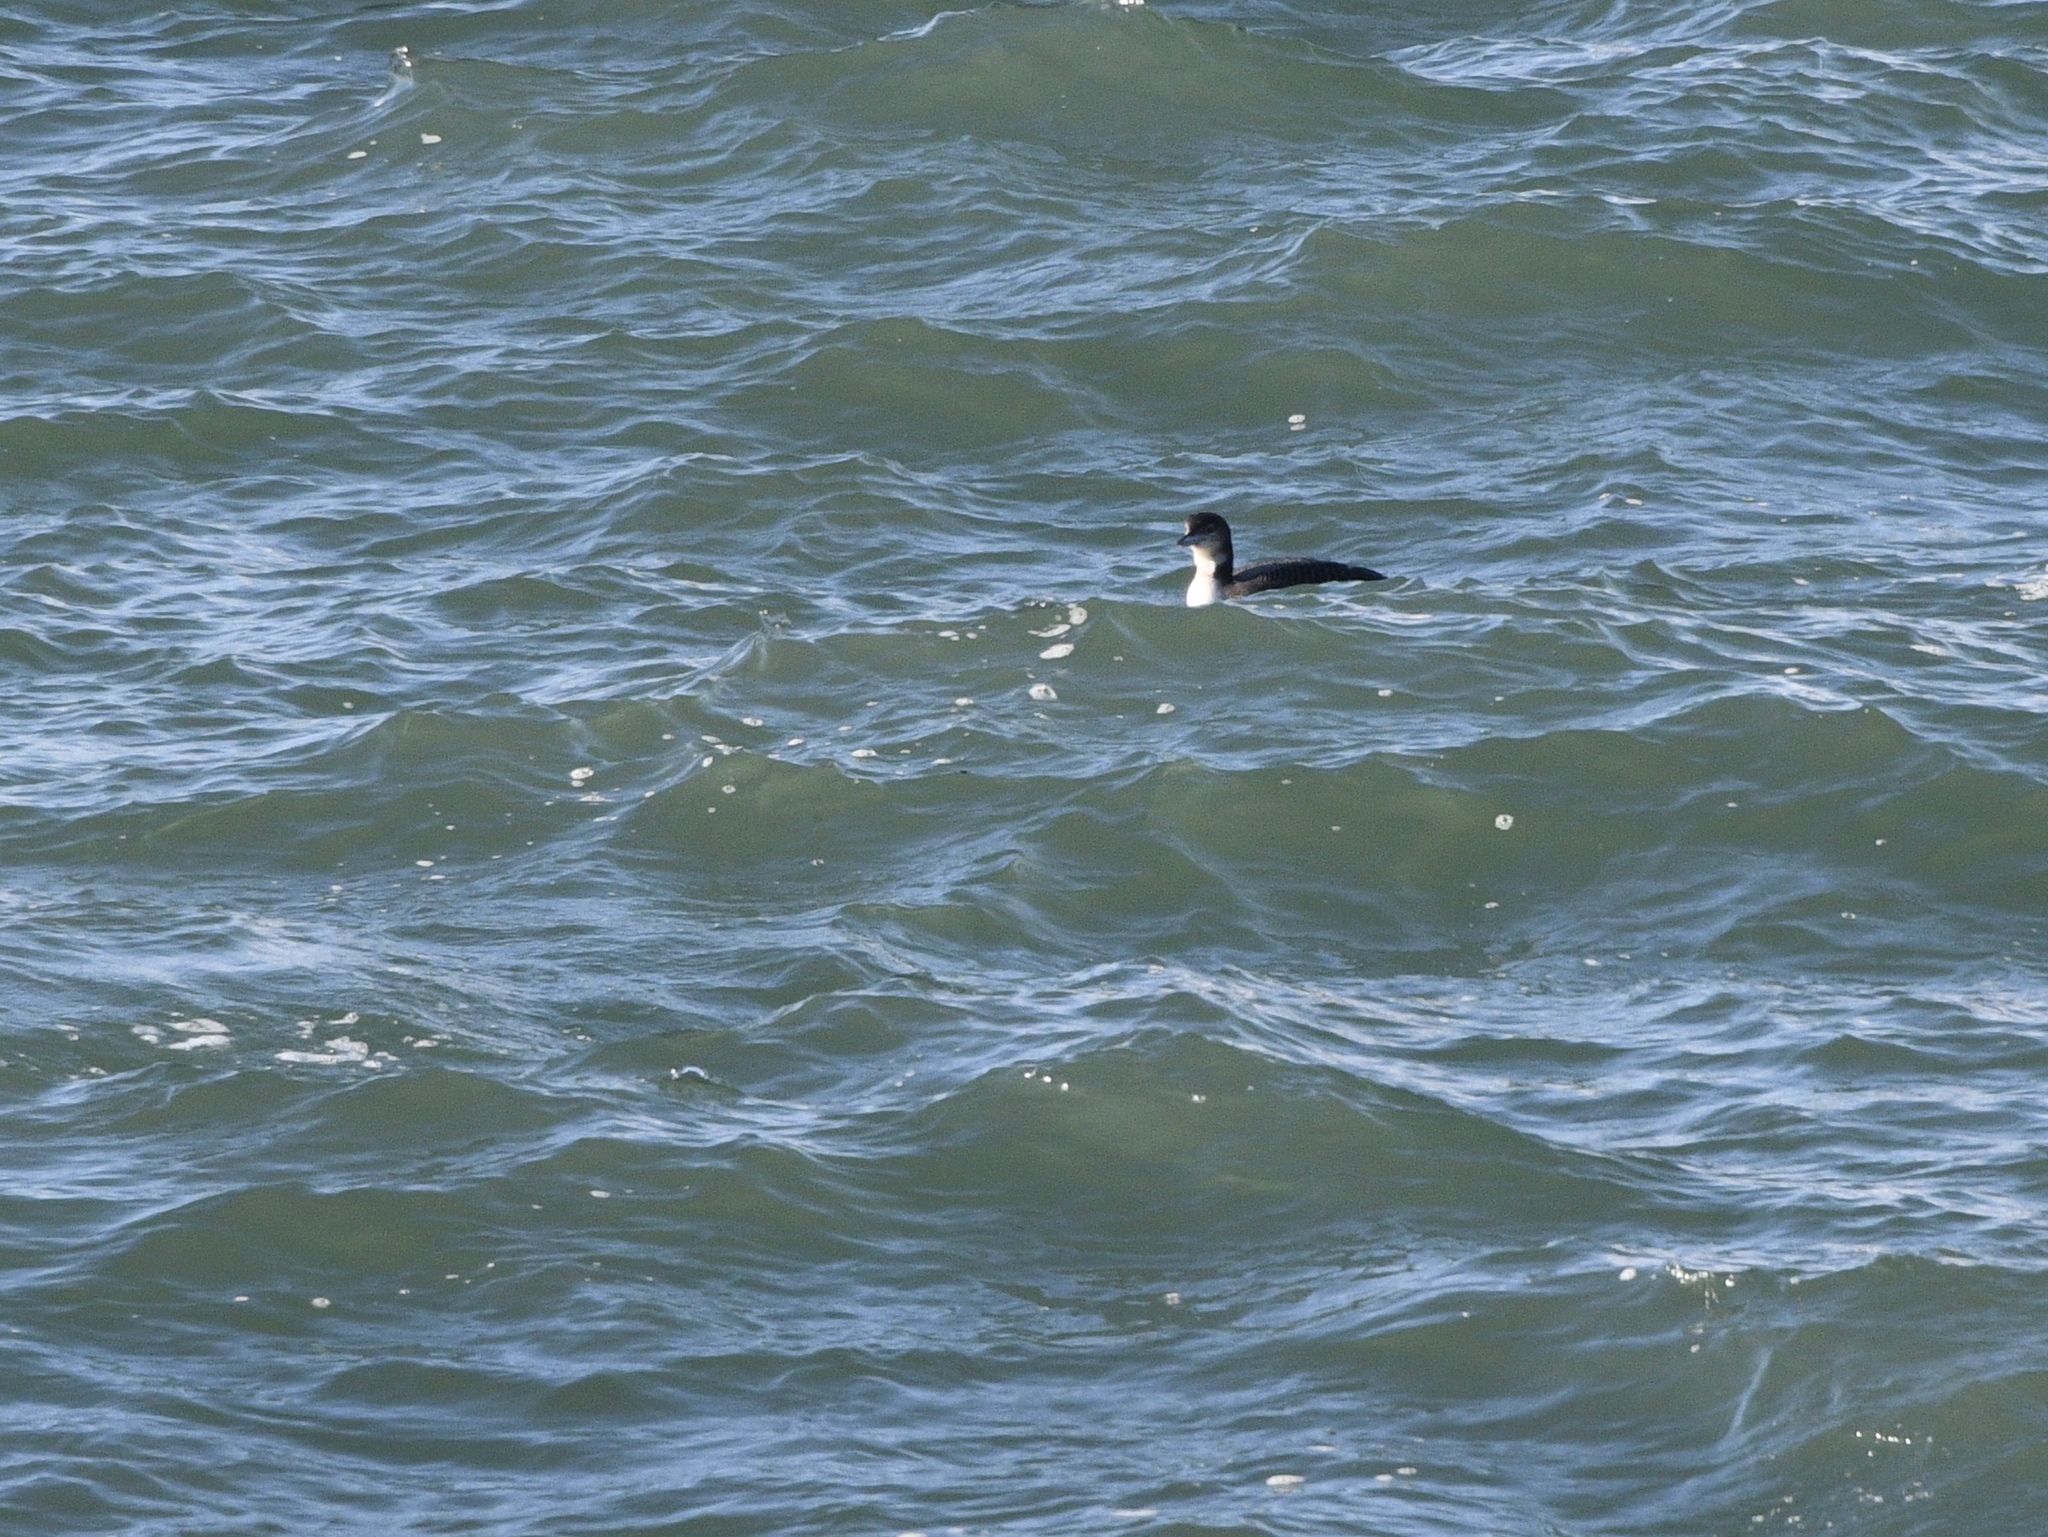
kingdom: Animalia
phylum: Chordata
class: Aves
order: Gaviiformes
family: Gaviidae
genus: Gavia
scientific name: Gavia immer
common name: Common loon
